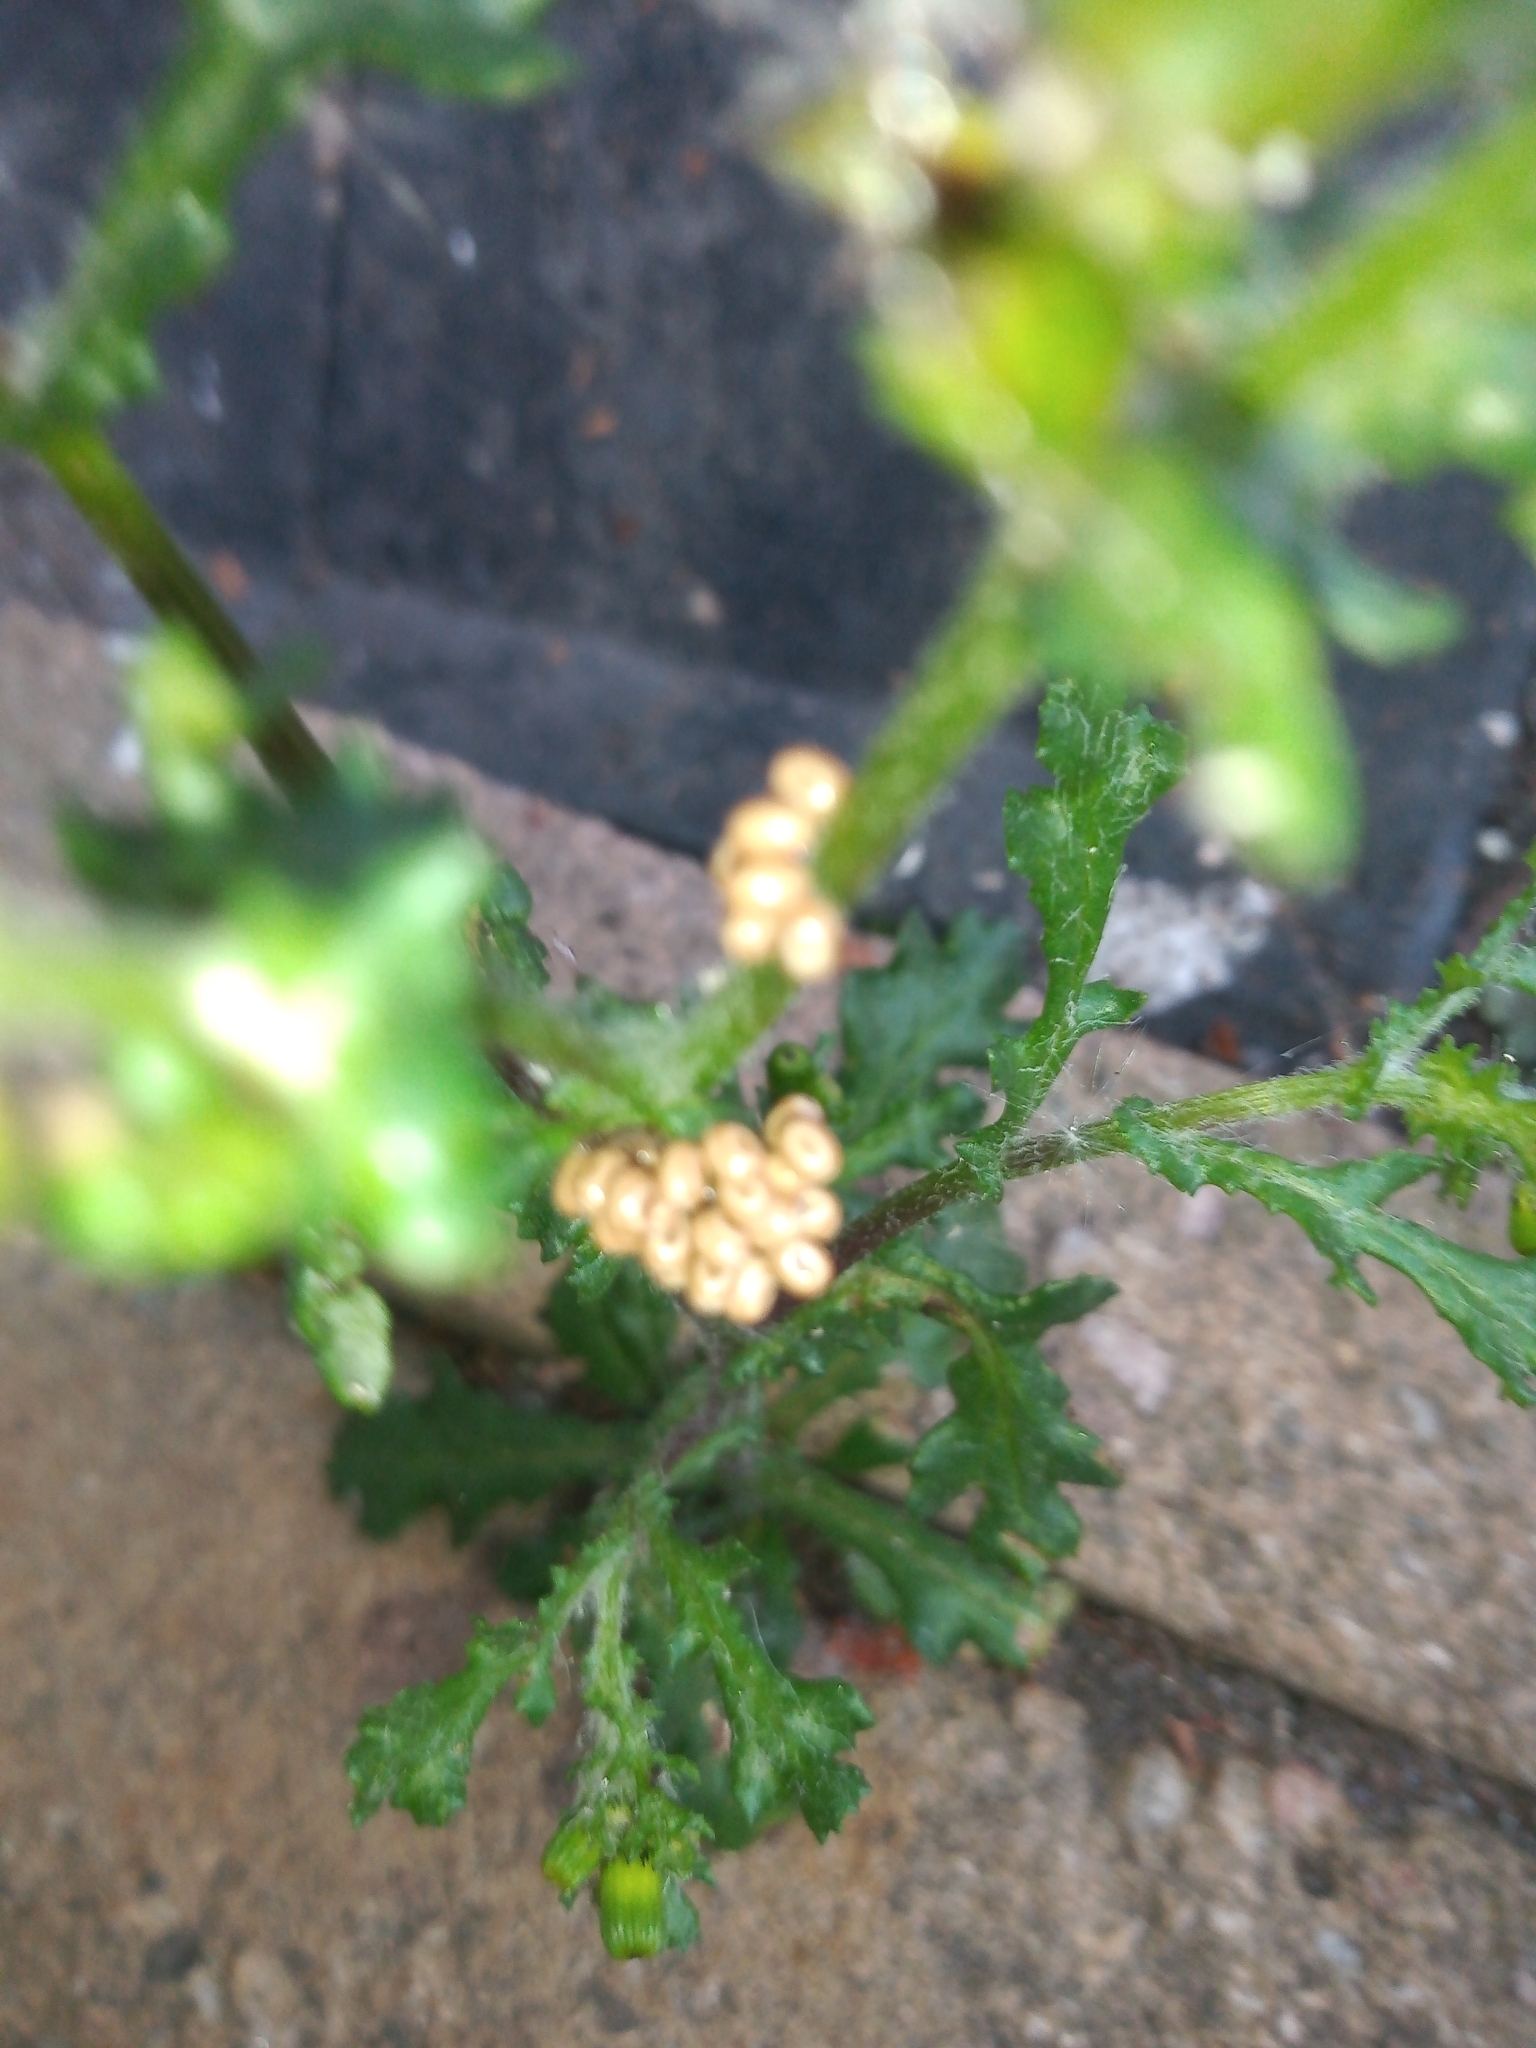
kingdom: Plantae
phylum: Tracheophyta
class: Magnoliopsida
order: Asterales
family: Asteraceae
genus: Senecio
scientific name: Senecio vulgaris
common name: Old-man-in-the-spring
